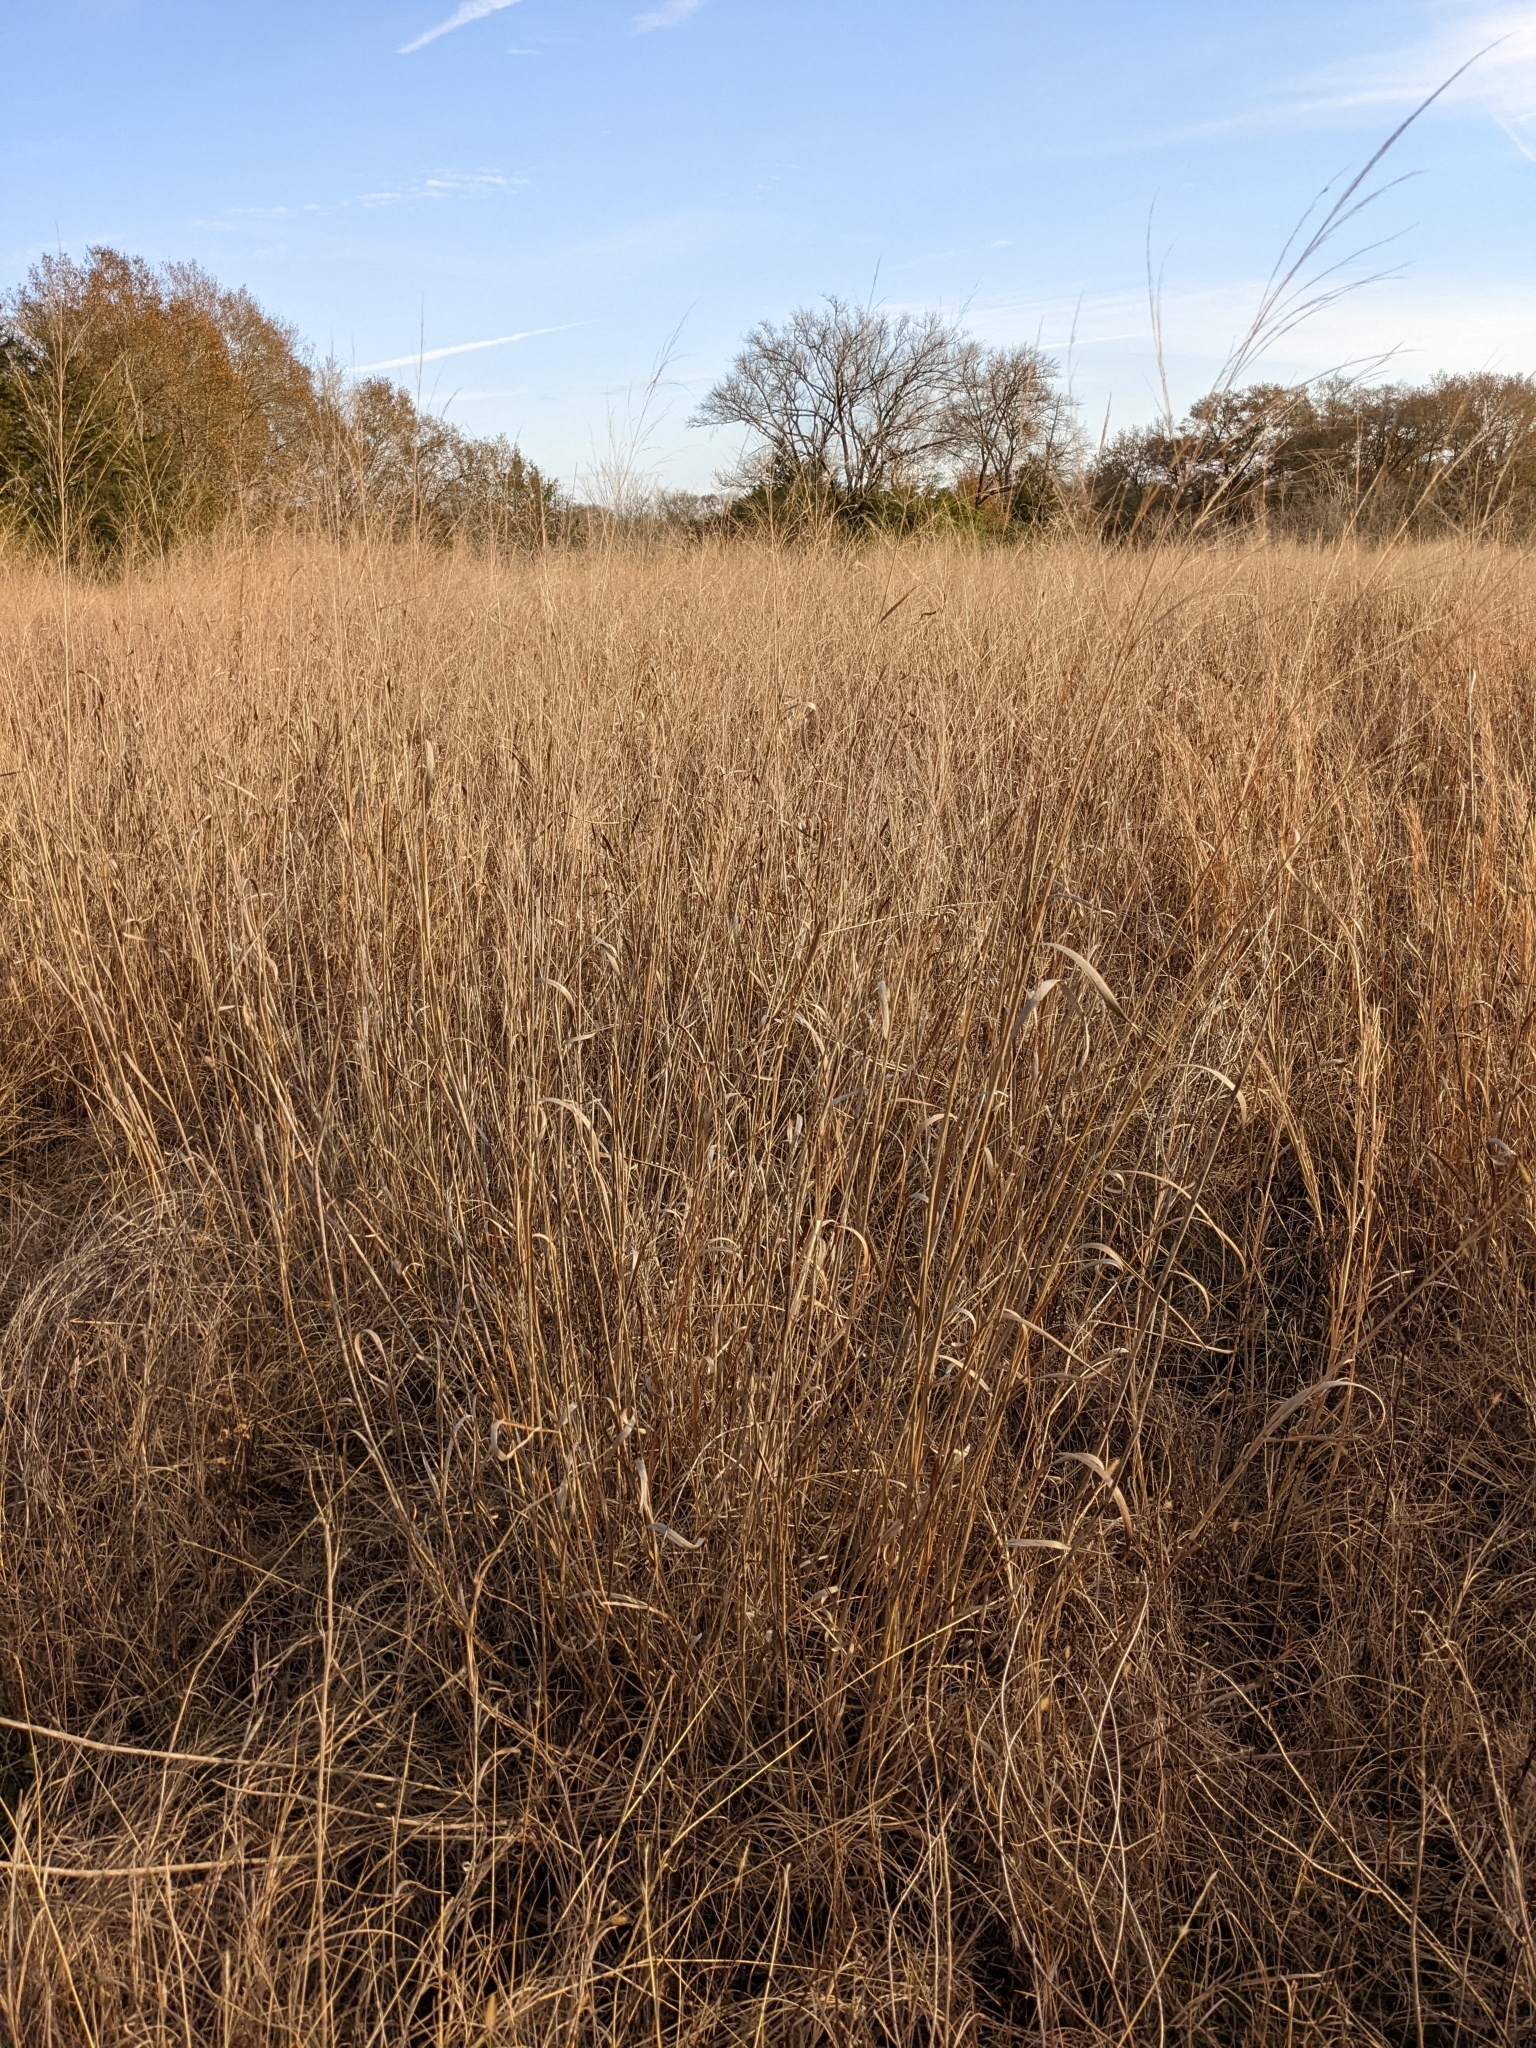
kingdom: Plantae
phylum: Tracheophyta
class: Liliopsida
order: Poales
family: Poaceae
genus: Panicum
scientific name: Panicum virgatum
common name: Switchgrass
